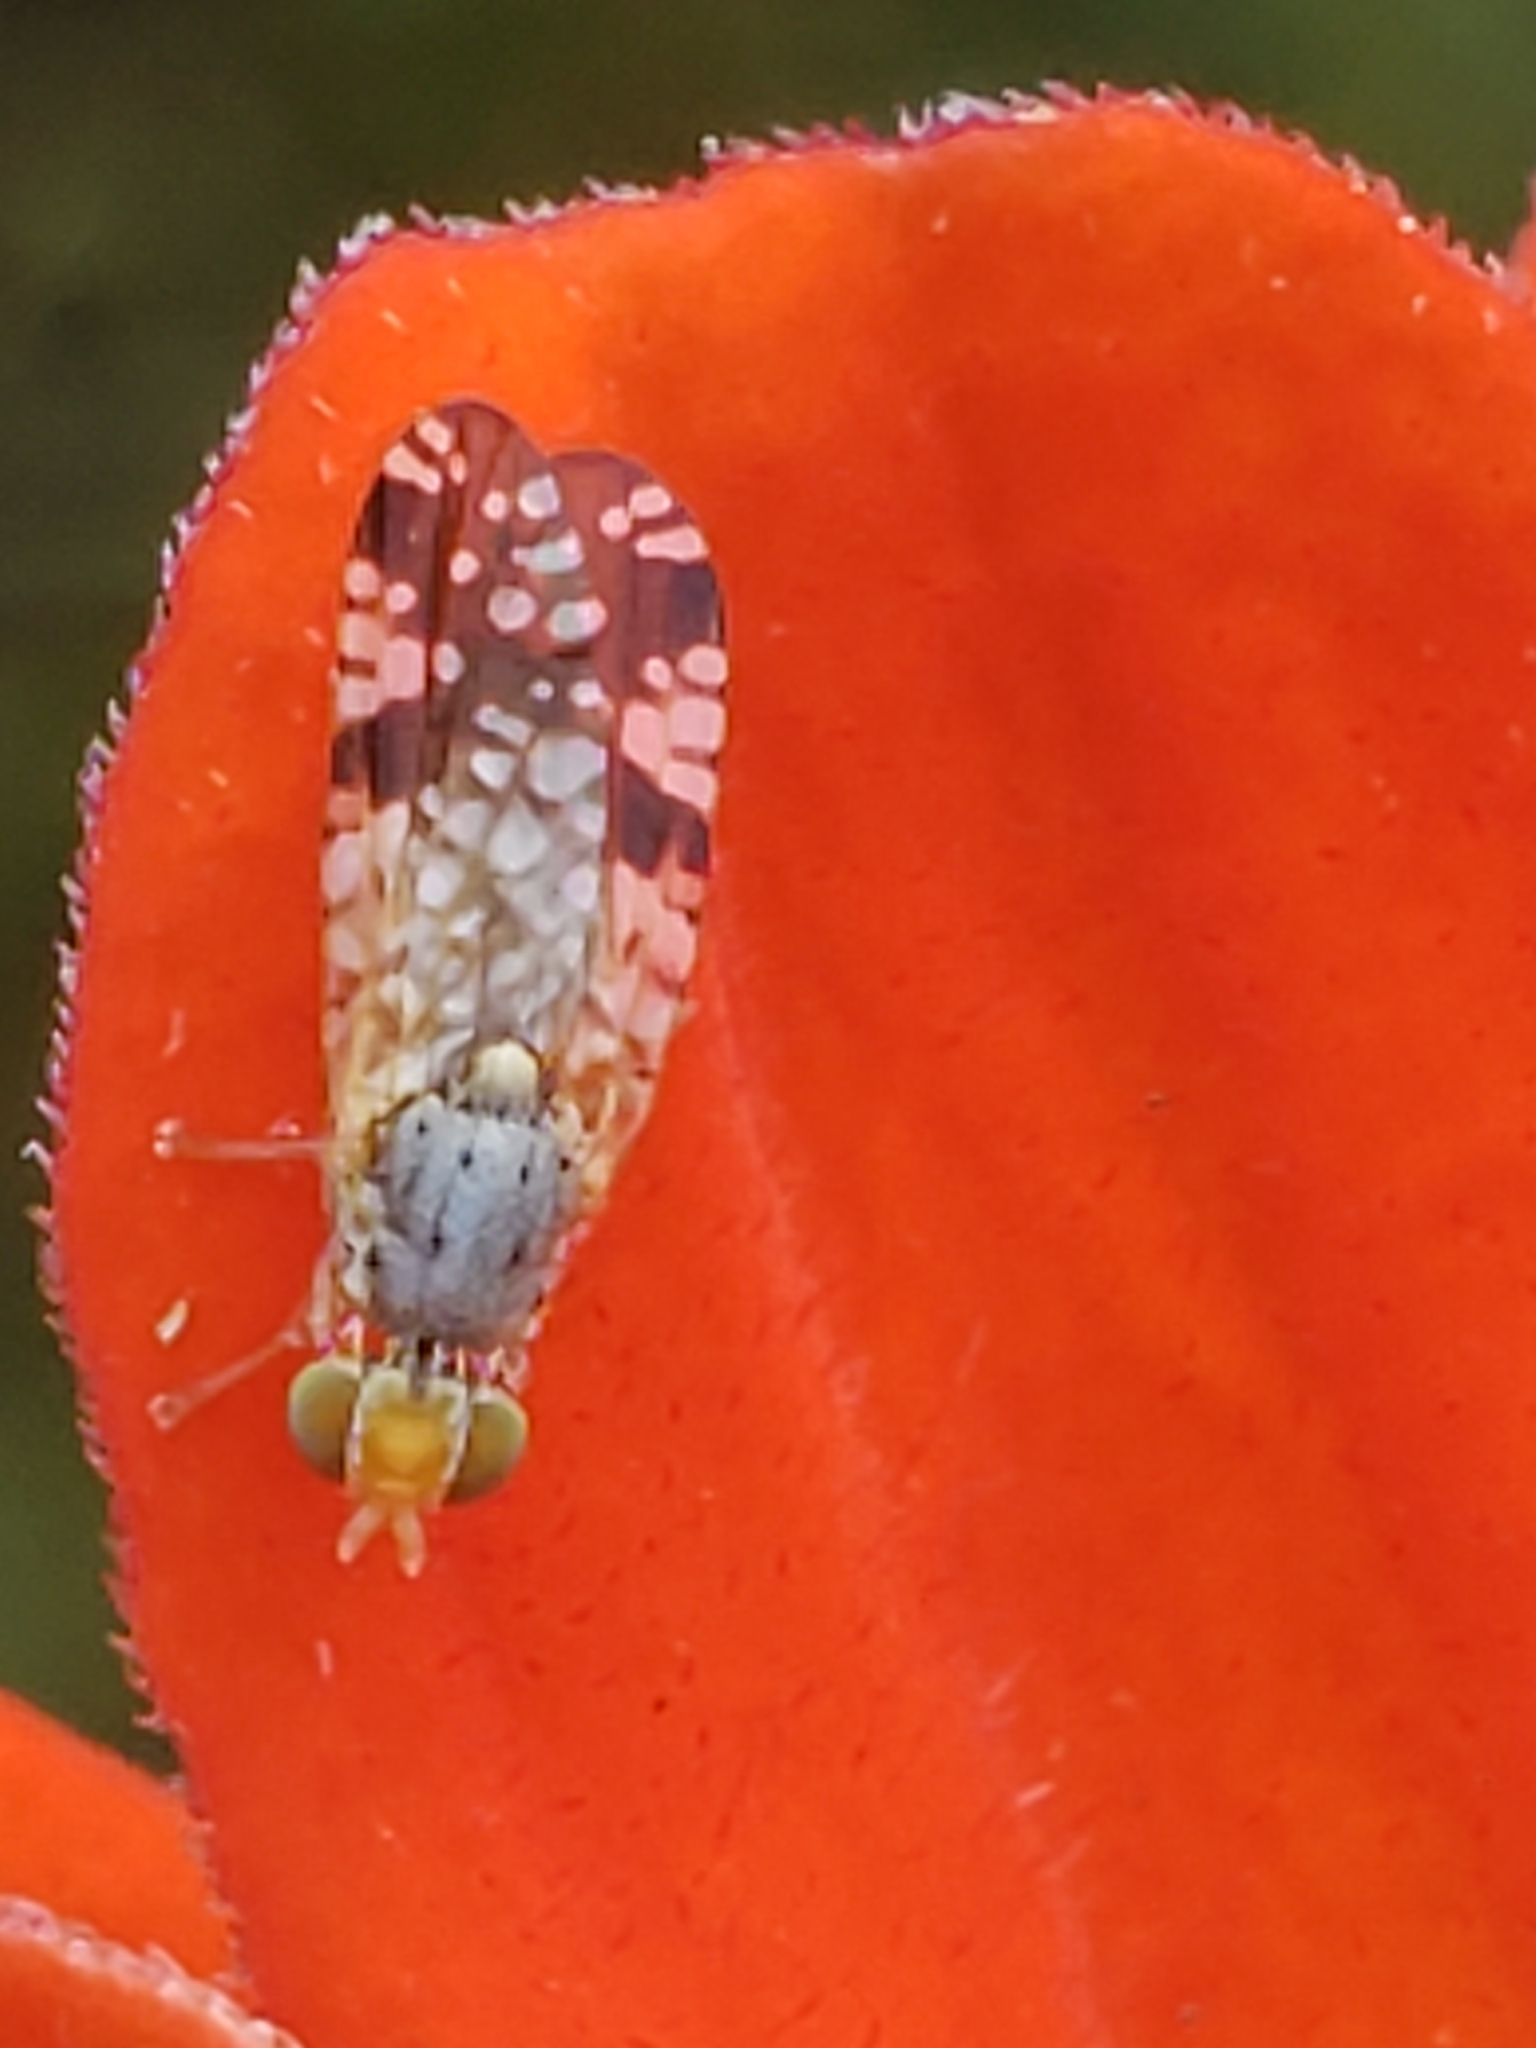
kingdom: Animalia
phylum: Arthropoda
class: Insecta
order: Diptera
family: Tephritidae
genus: Neotephritis
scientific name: Neotephritis finalis
